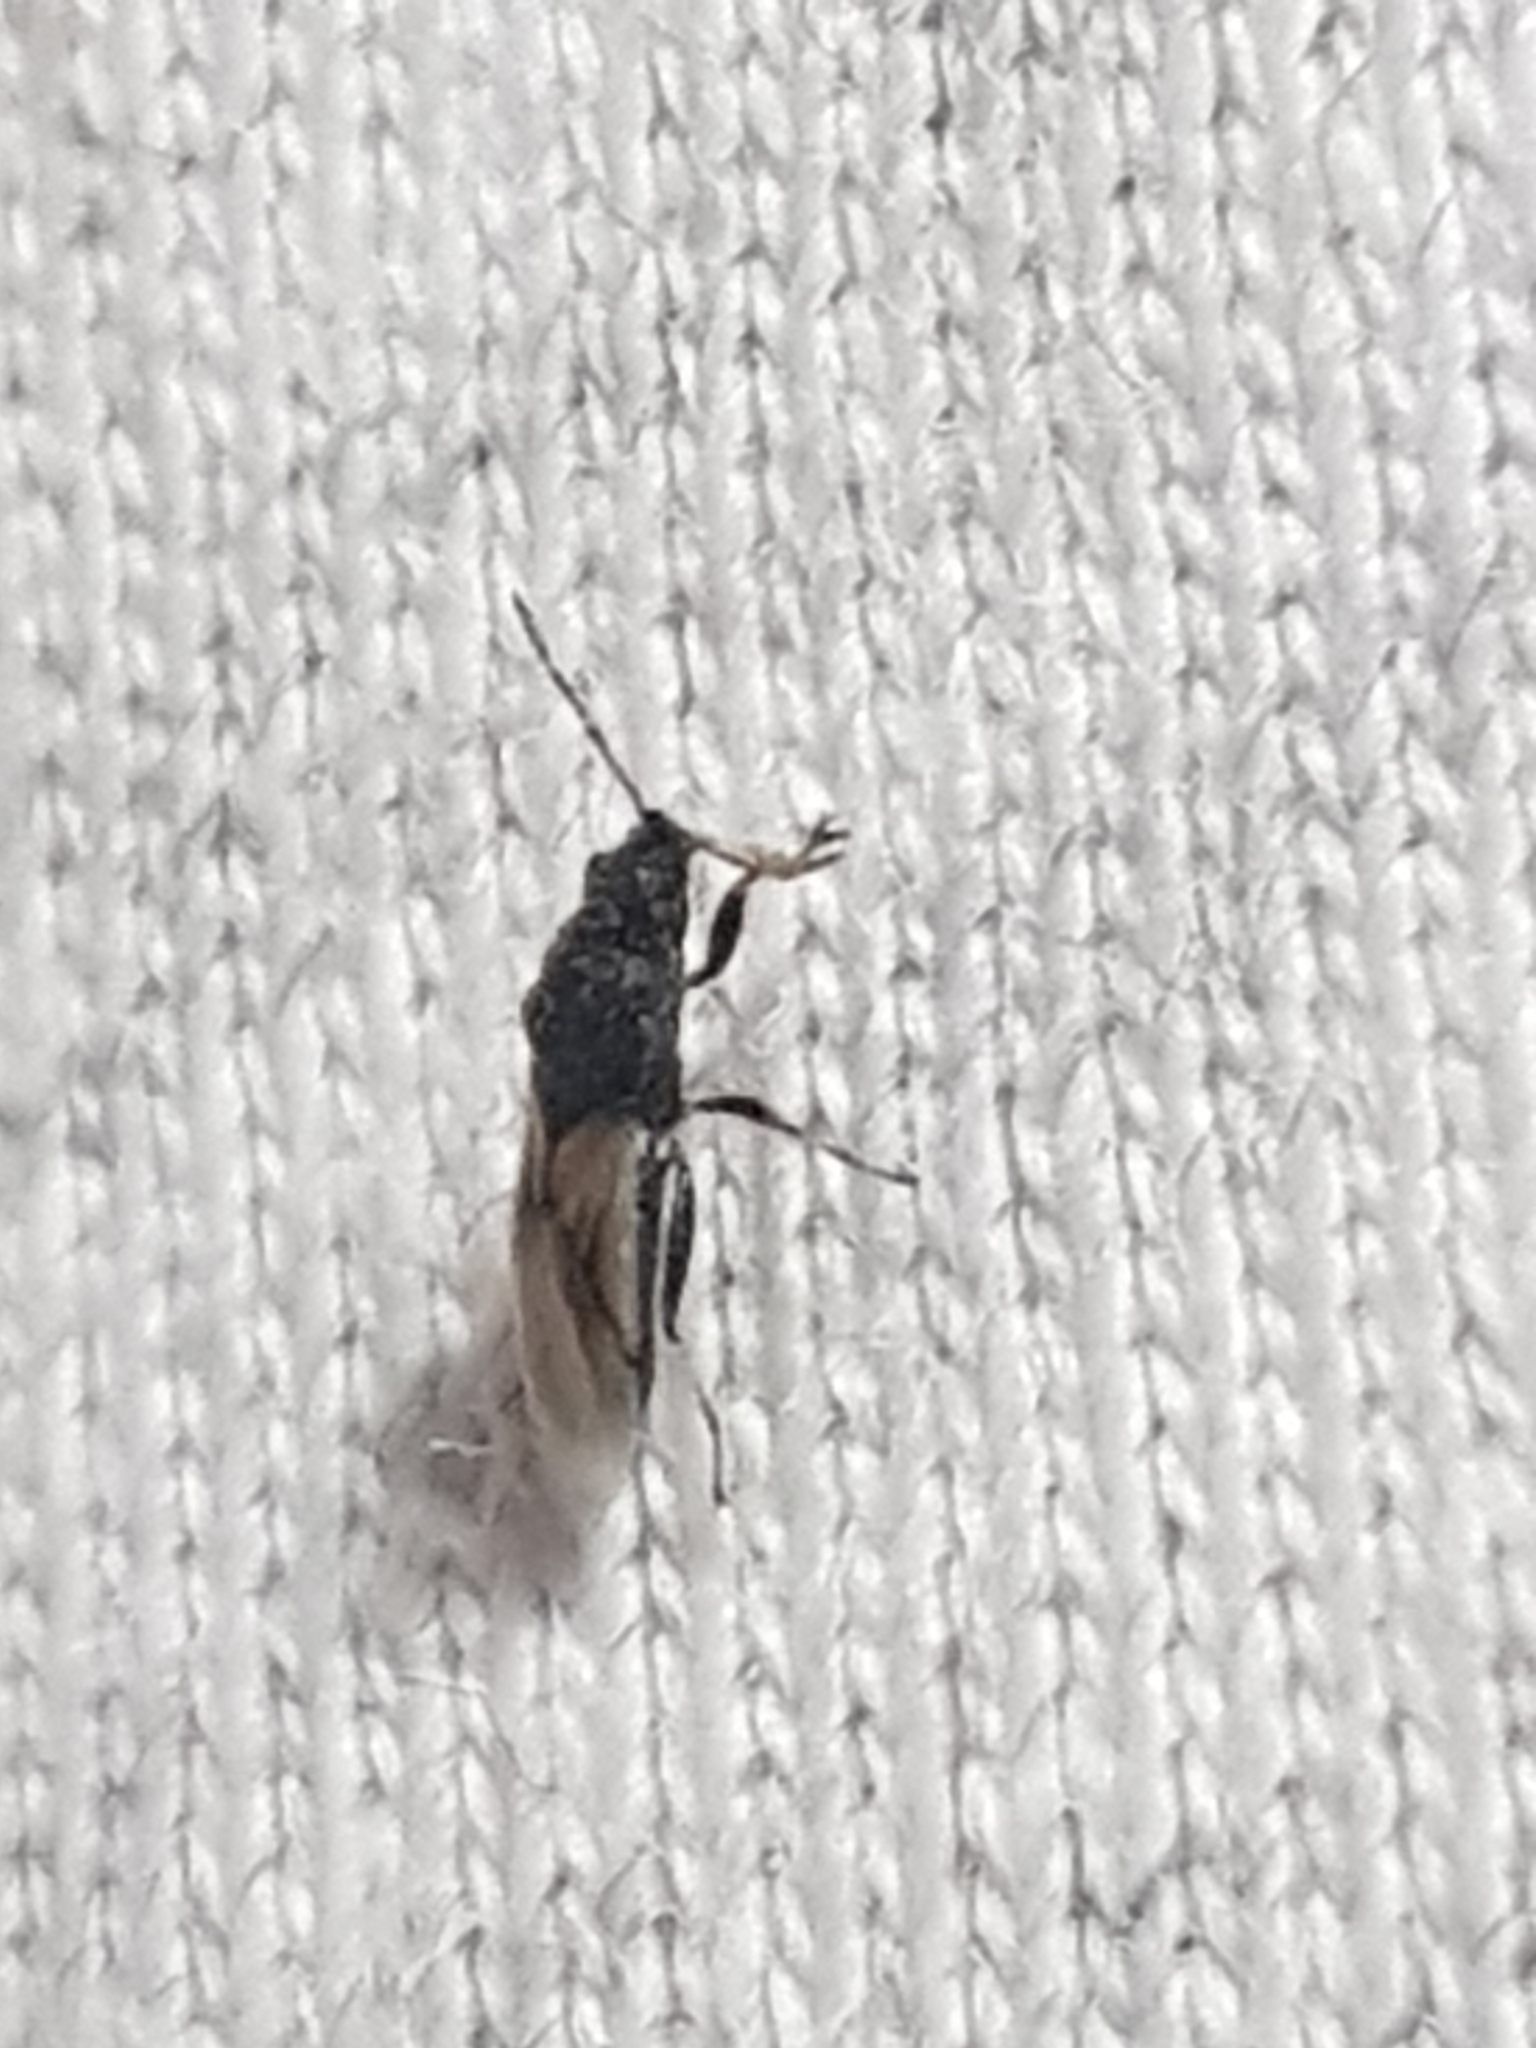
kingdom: Animalia
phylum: Arthropoda
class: Insecta
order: Hemiptera
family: Oxycarenidae
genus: Metopoplax
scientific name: Metopoplax ditomoides
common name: Seed bug
